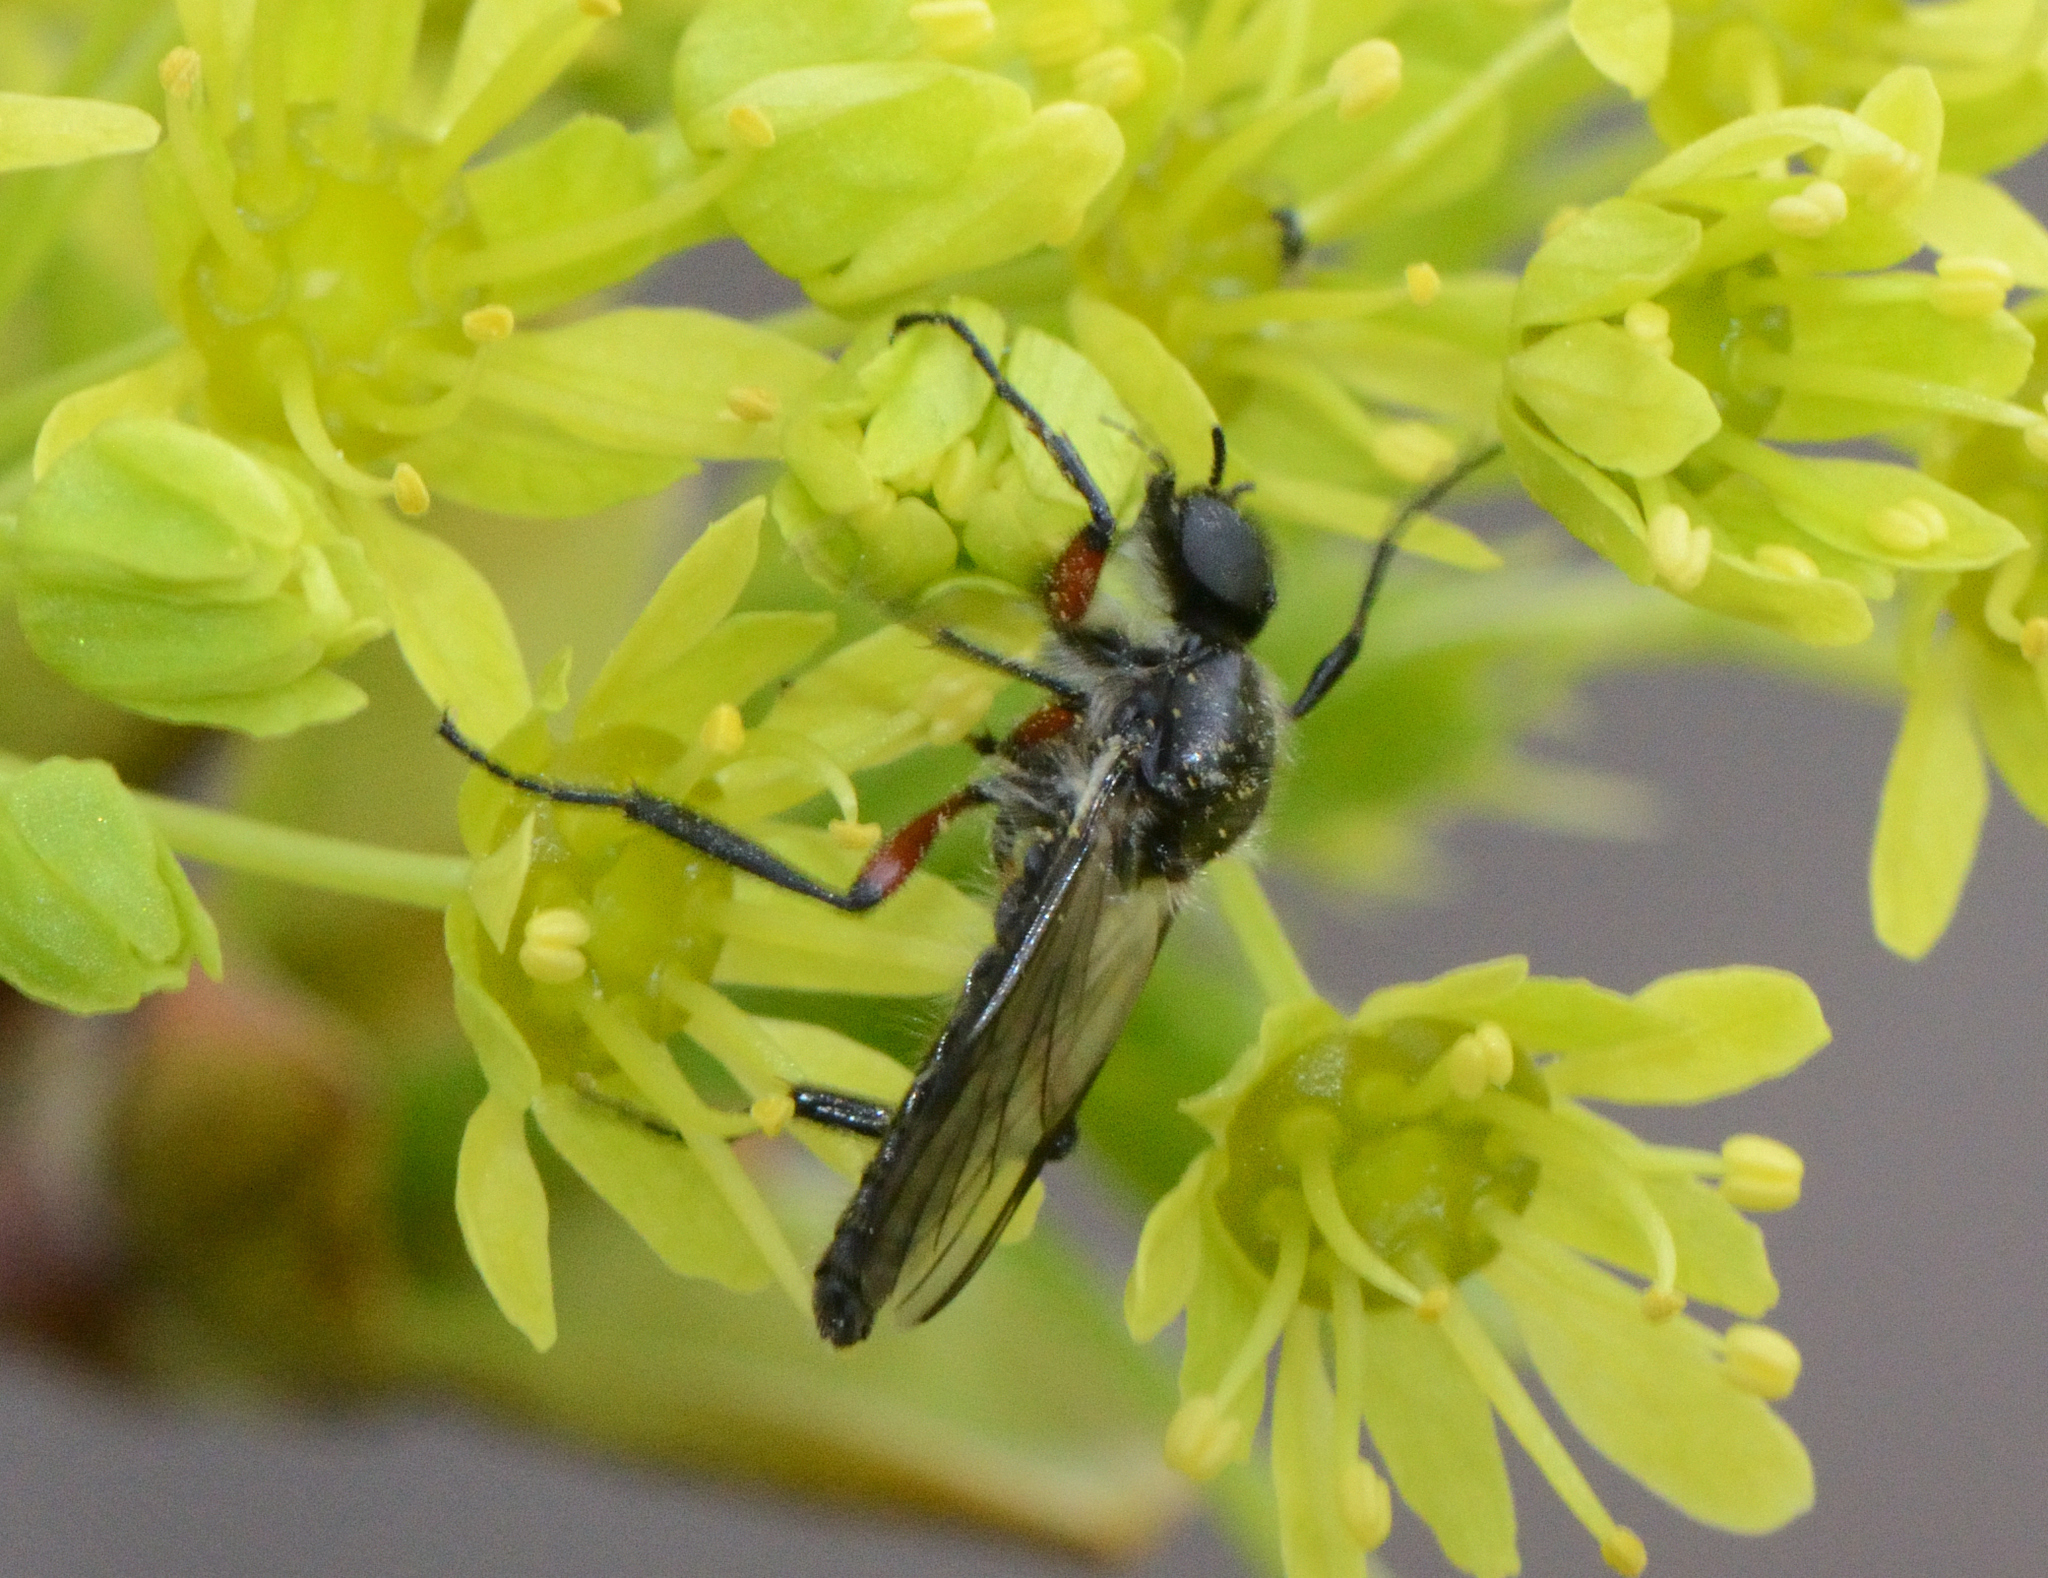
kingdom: Animalia
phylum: Arthropoda
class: Insecta
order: Diptera
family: Bibionidae
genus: Bibio
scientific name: Bibio femoratus
